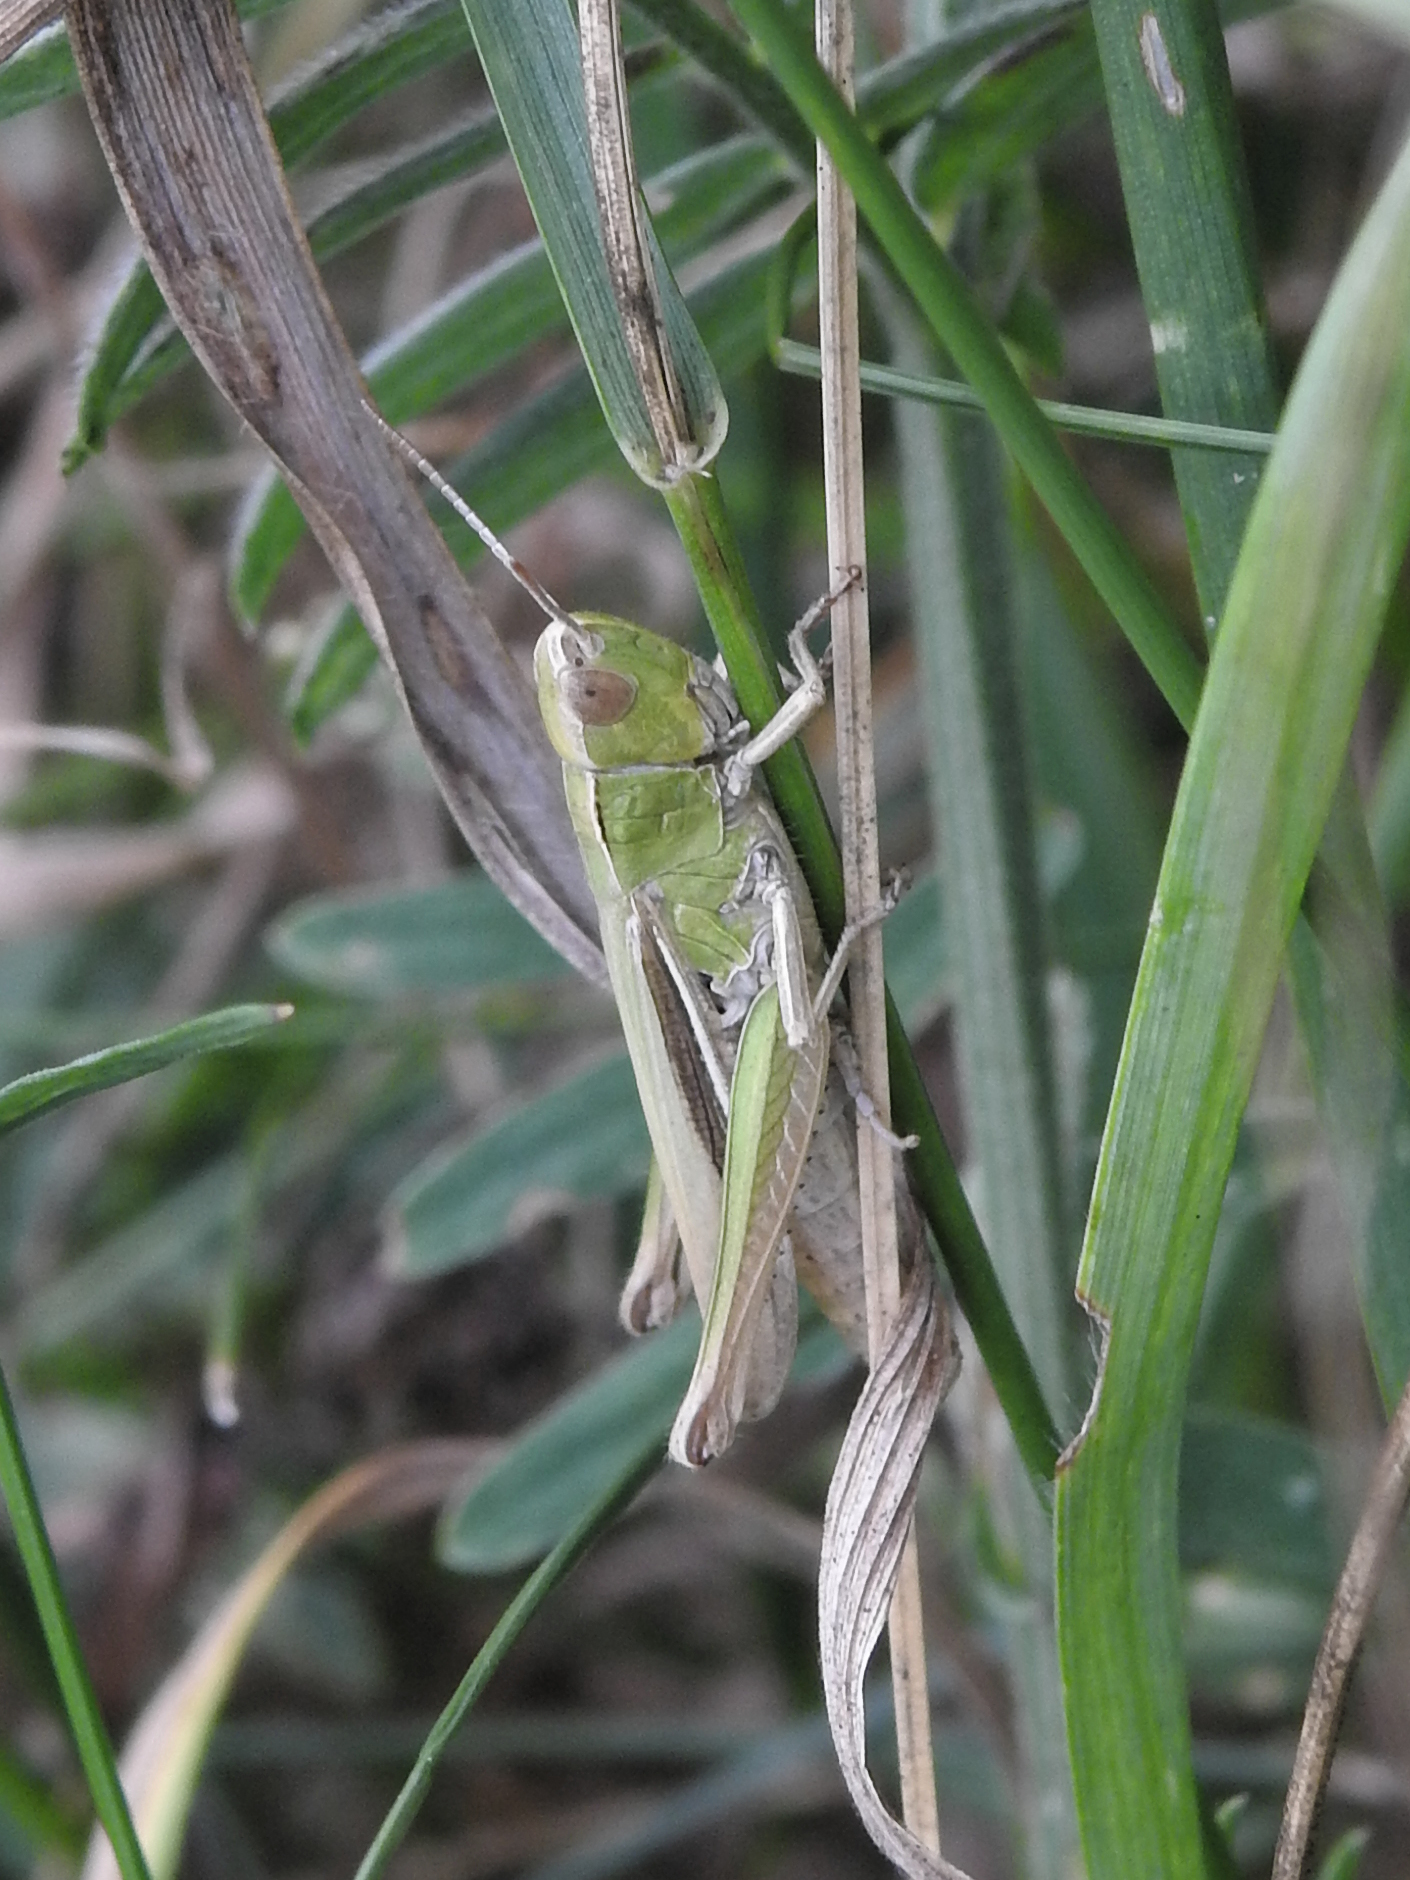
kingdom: Animalia
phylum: Arthropoda
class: Insecta
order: Orthoptera
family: Acrididae
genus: Chorthippus
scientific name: Chorthippus albomarginatus
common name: Lesser marsh grasshopper
